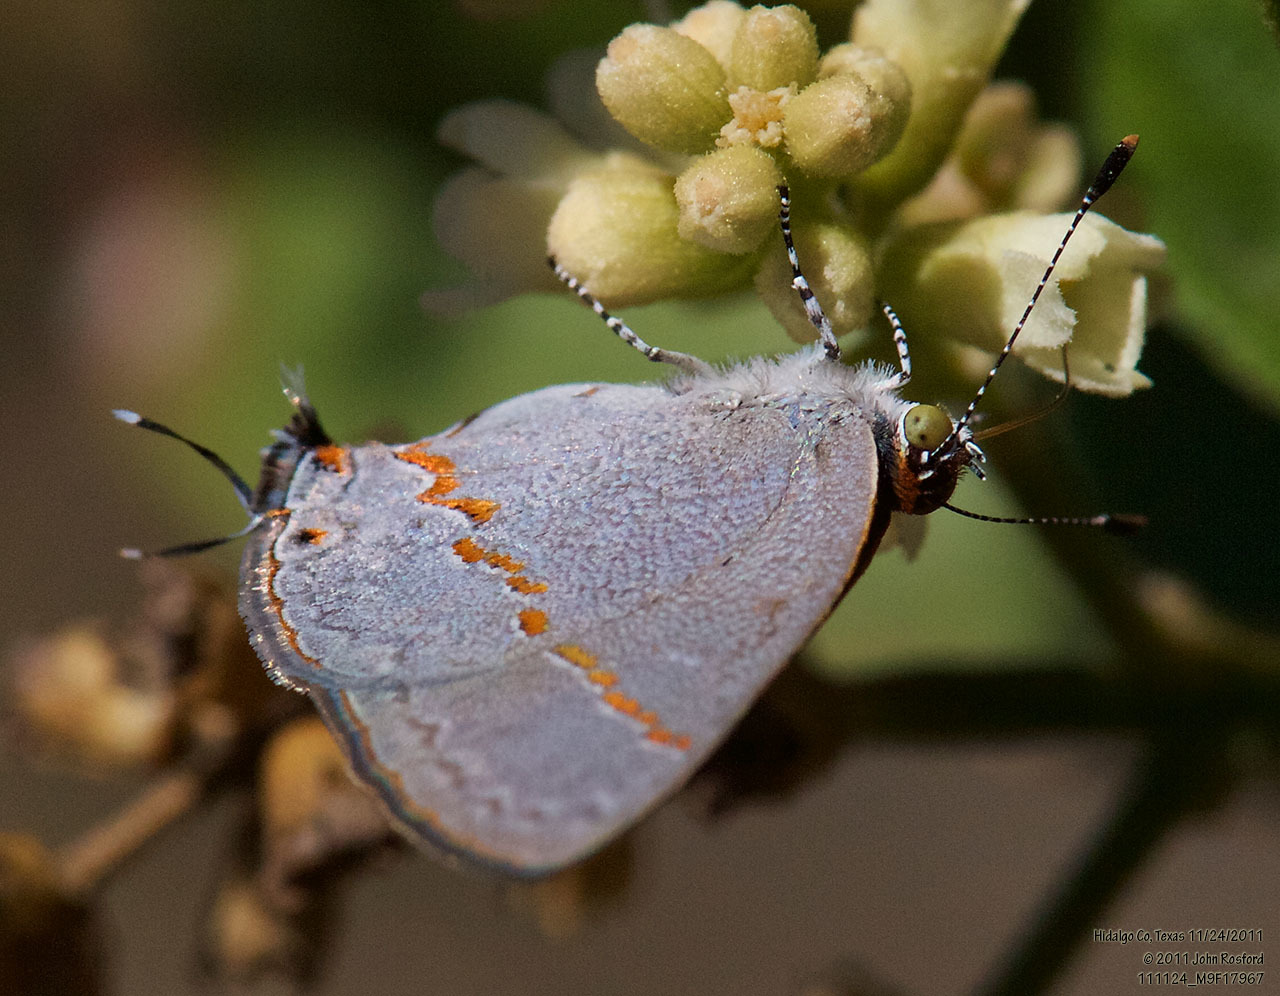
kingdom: Animalia
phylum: Arthropoda
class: Insecta
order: Lepidoptera
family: Lycaenidae
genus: Ministrymon
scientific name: Ministrymon janevicroy
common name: Pebbly ministreak
